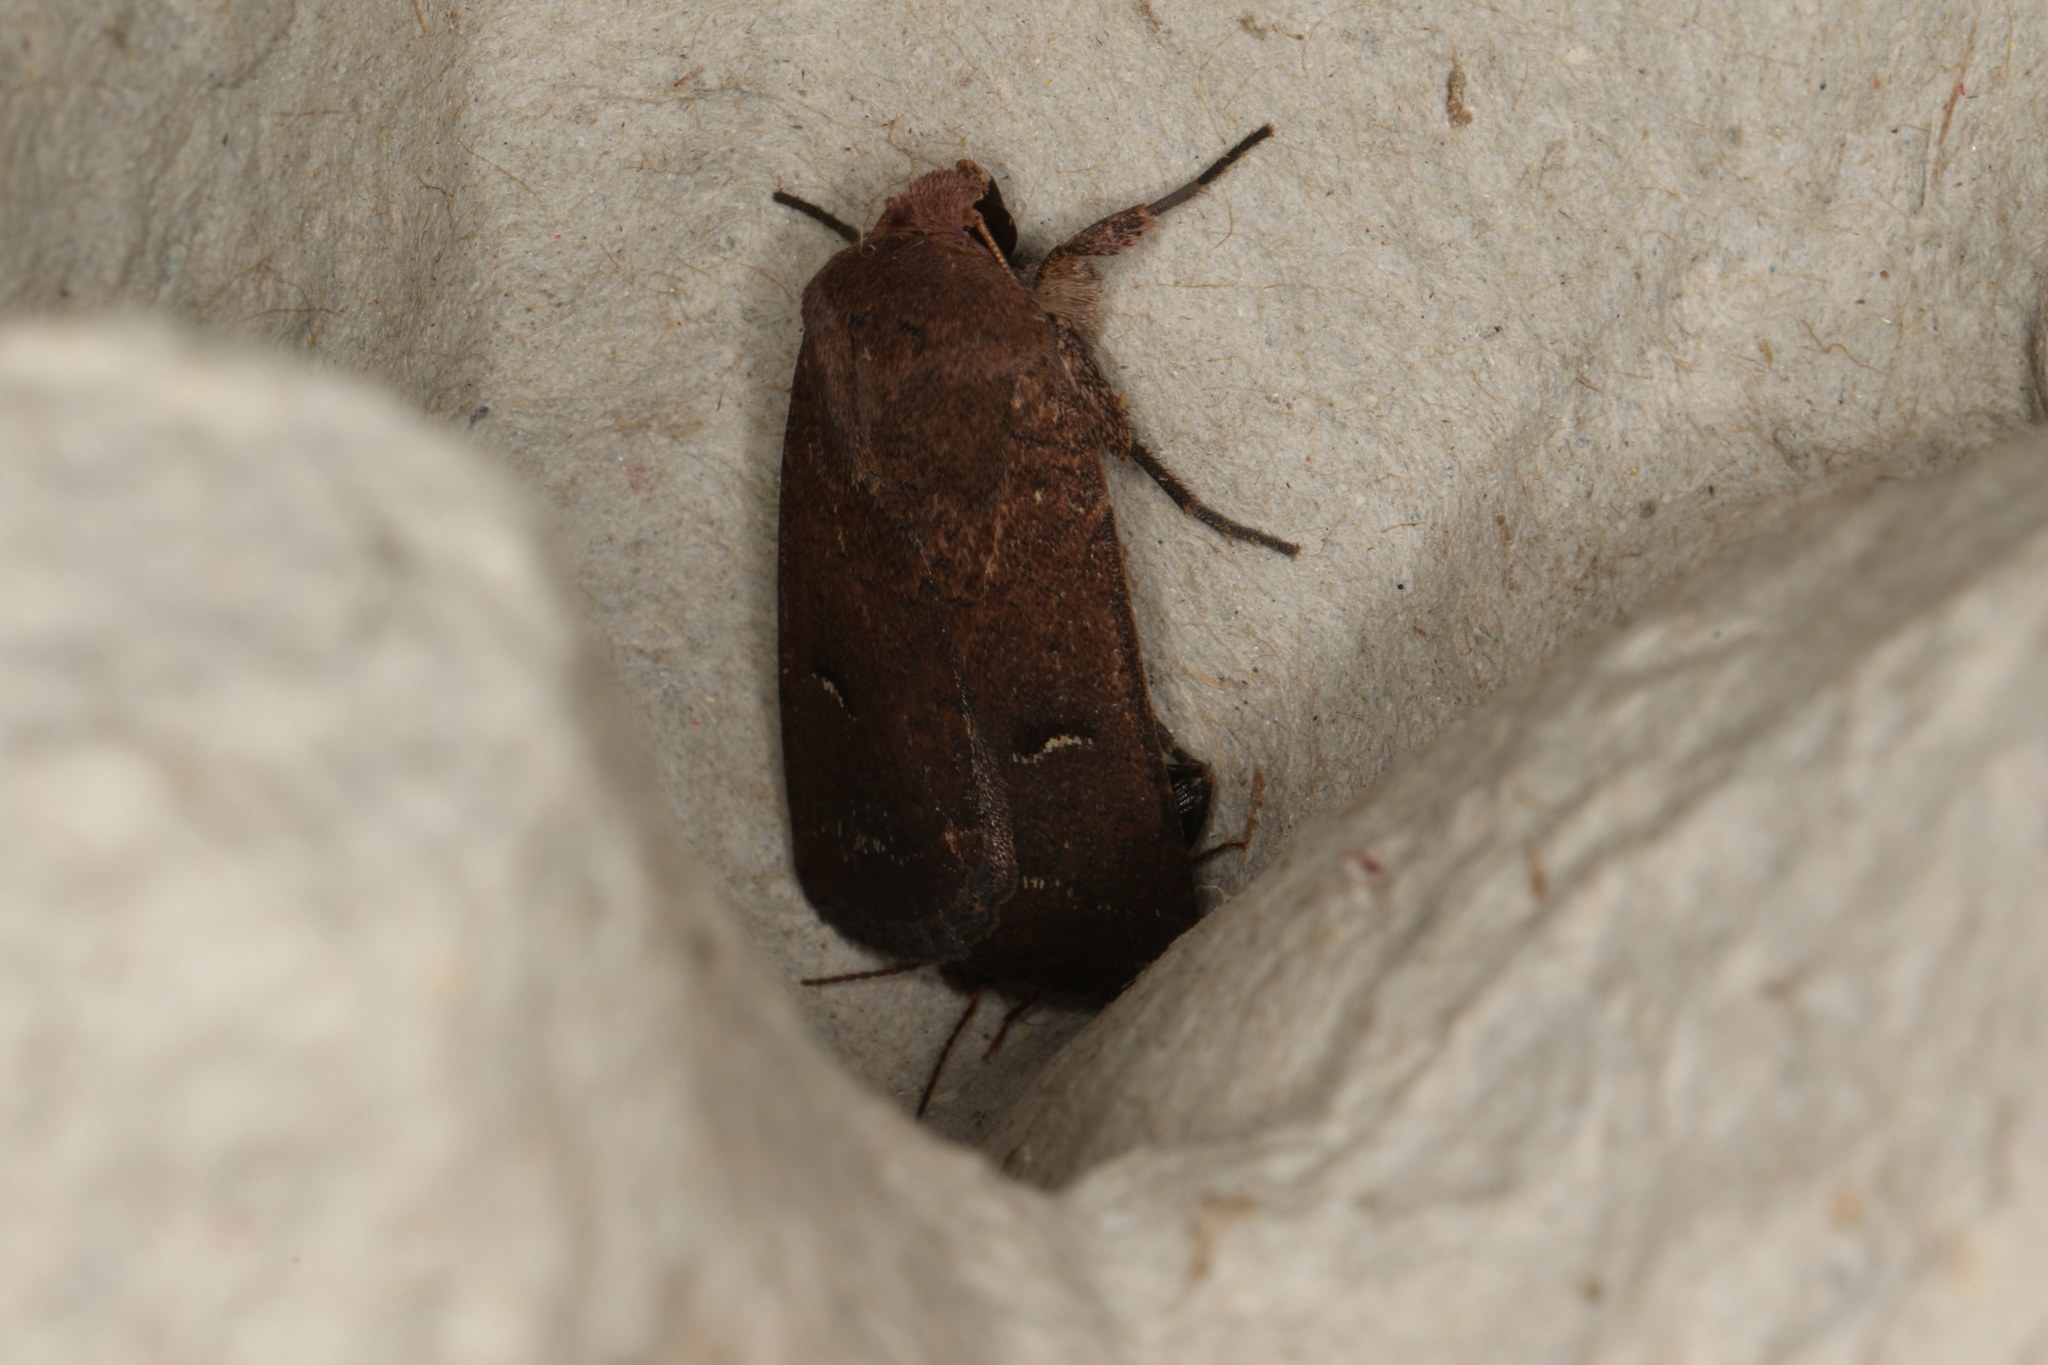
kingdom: Animalia
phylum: Arthropoda
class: Insecta
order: Lepidoptera
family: Noctuidae
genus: Proteuxoa
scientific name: Proteuxoa hypochalchis
